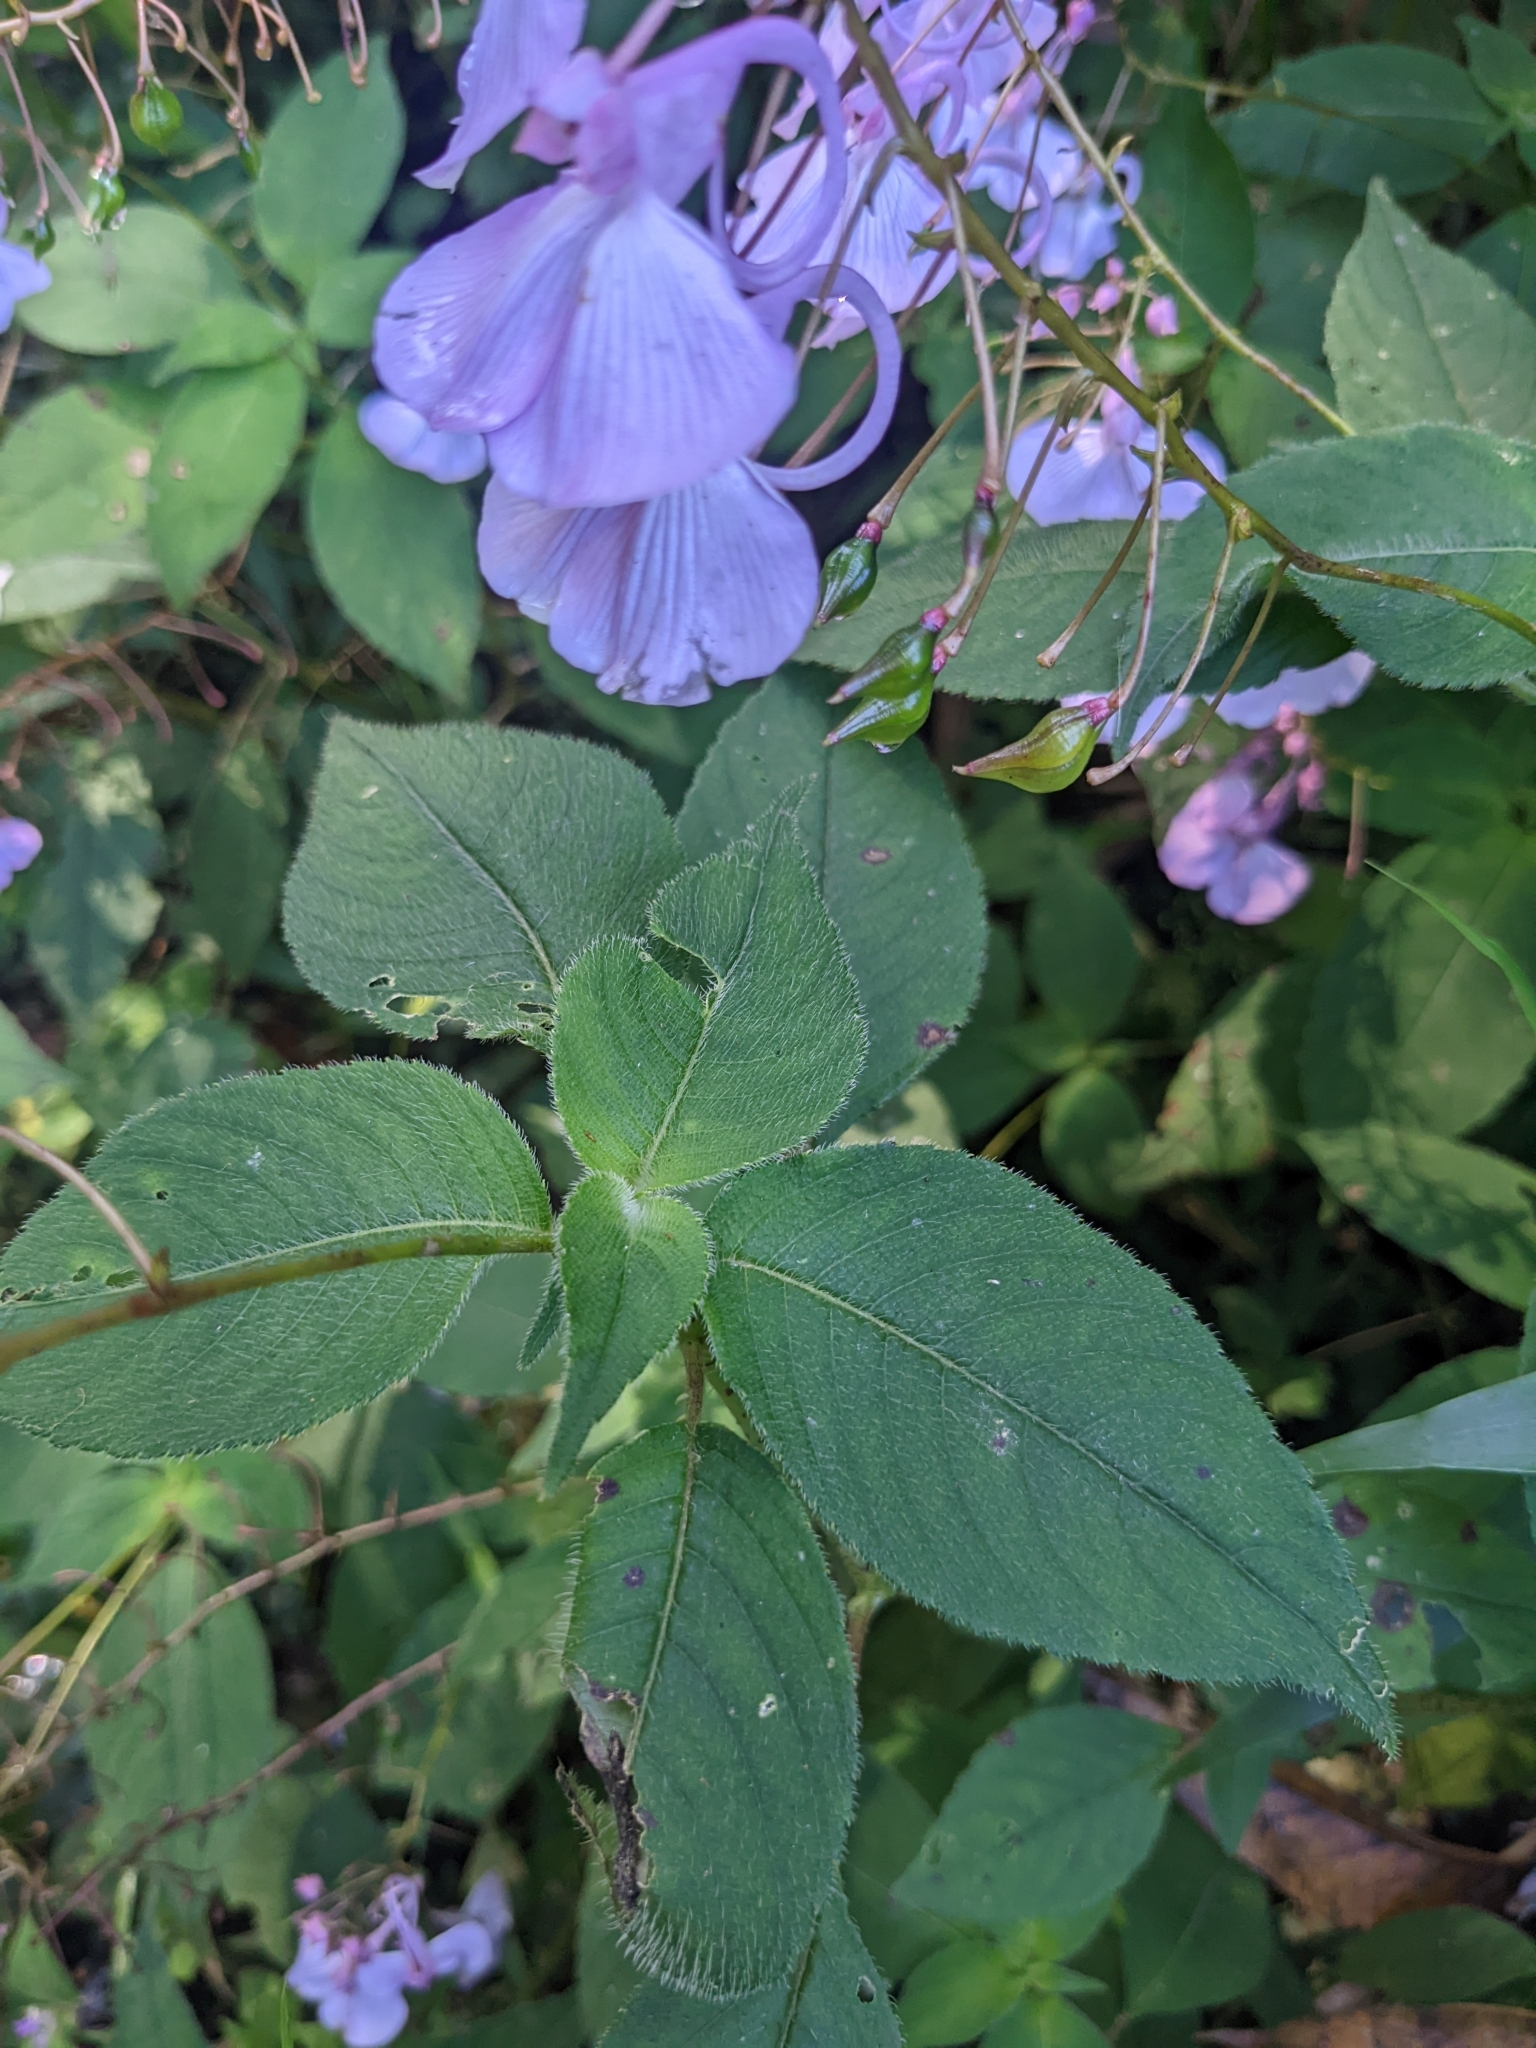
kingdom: Plantae
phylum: Tracheophyta
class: Magnoliopsida
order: Ericales
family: Balsaminaceae
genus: Impatiens
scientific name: Impatiens maculata
